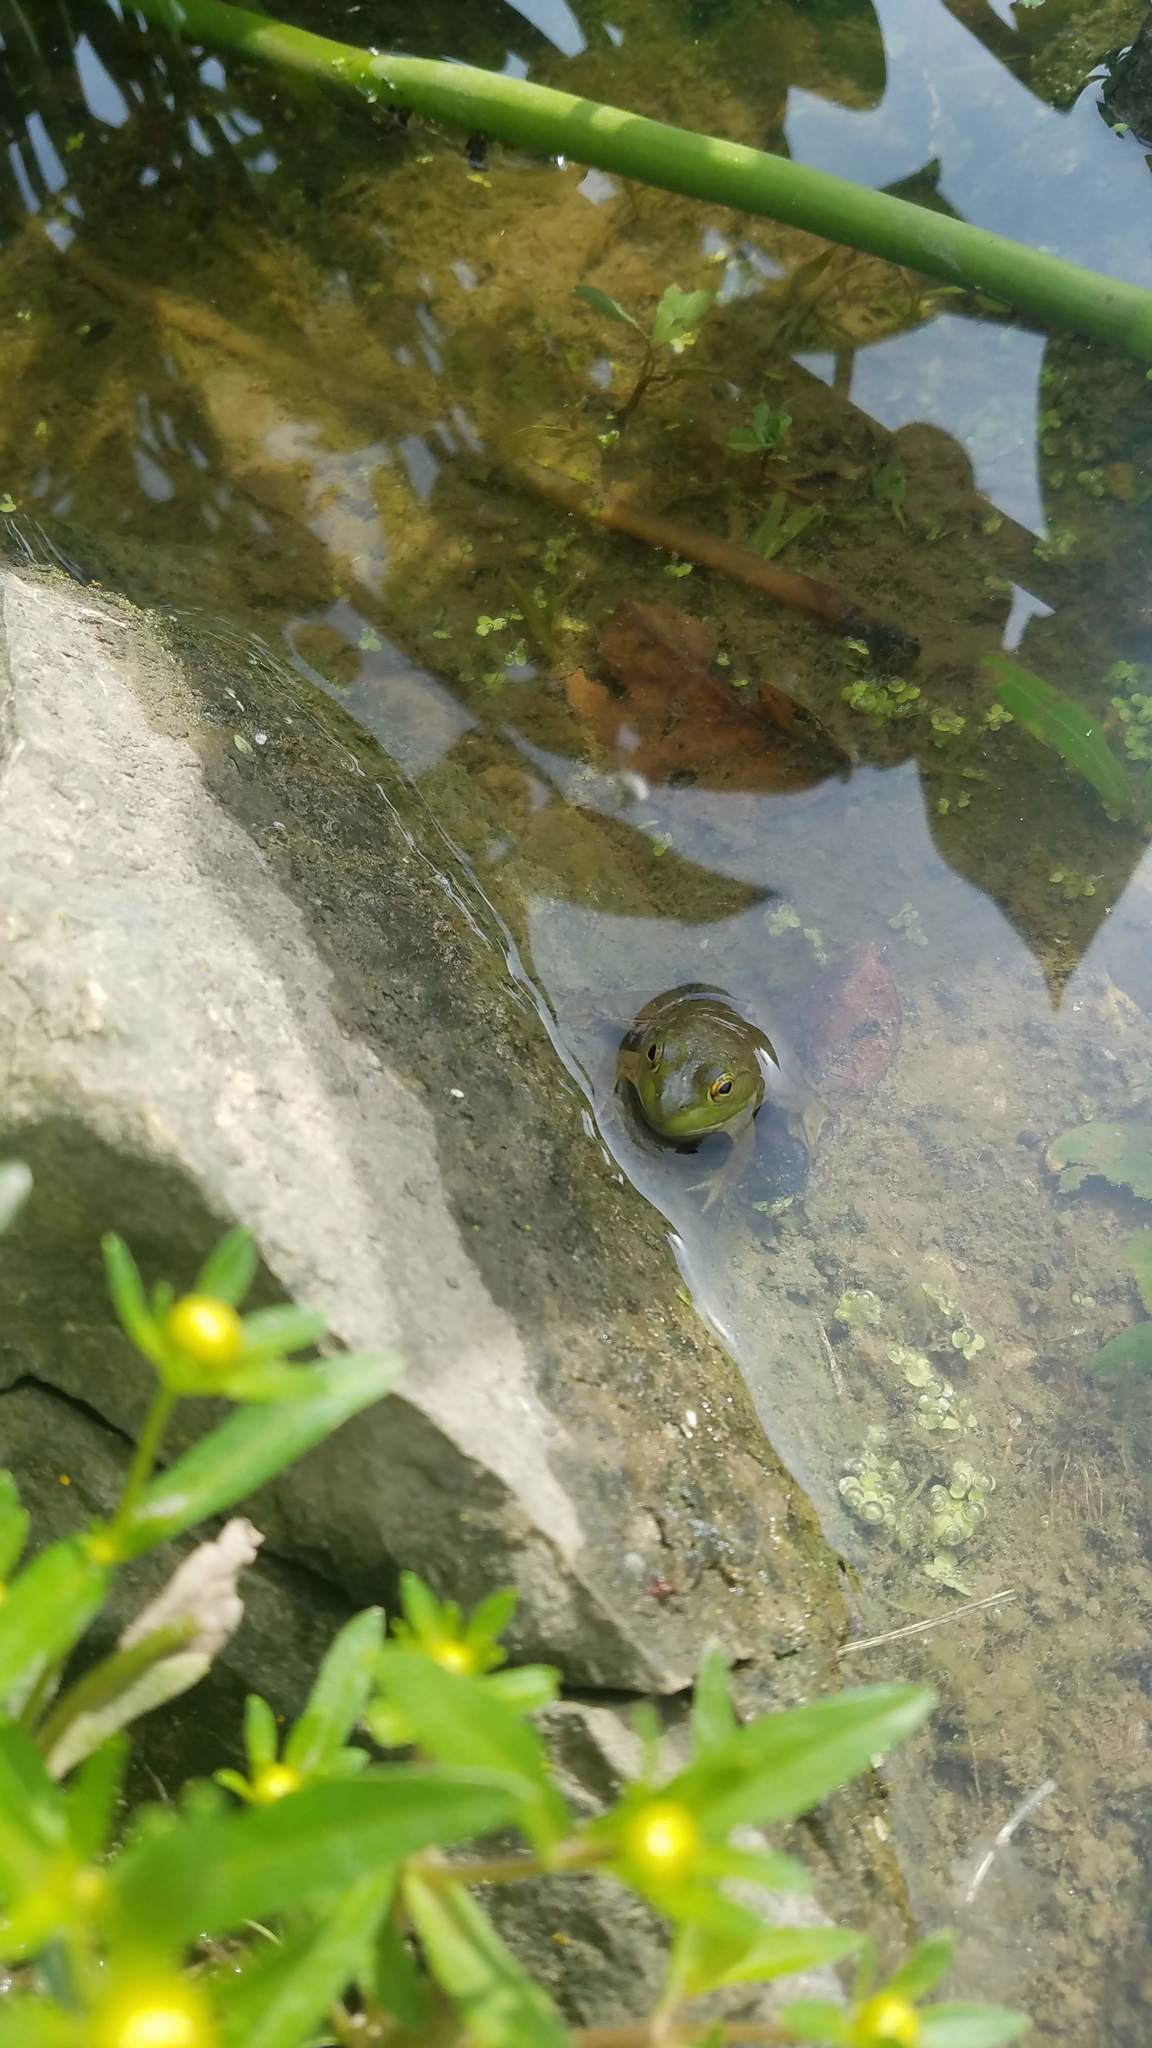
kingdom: Animalia
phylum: Chordata
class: Amphibia
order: Anura
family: Ranidae
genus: Lithobates
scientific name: Lithobates catesbeianus
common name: American bullfrog
